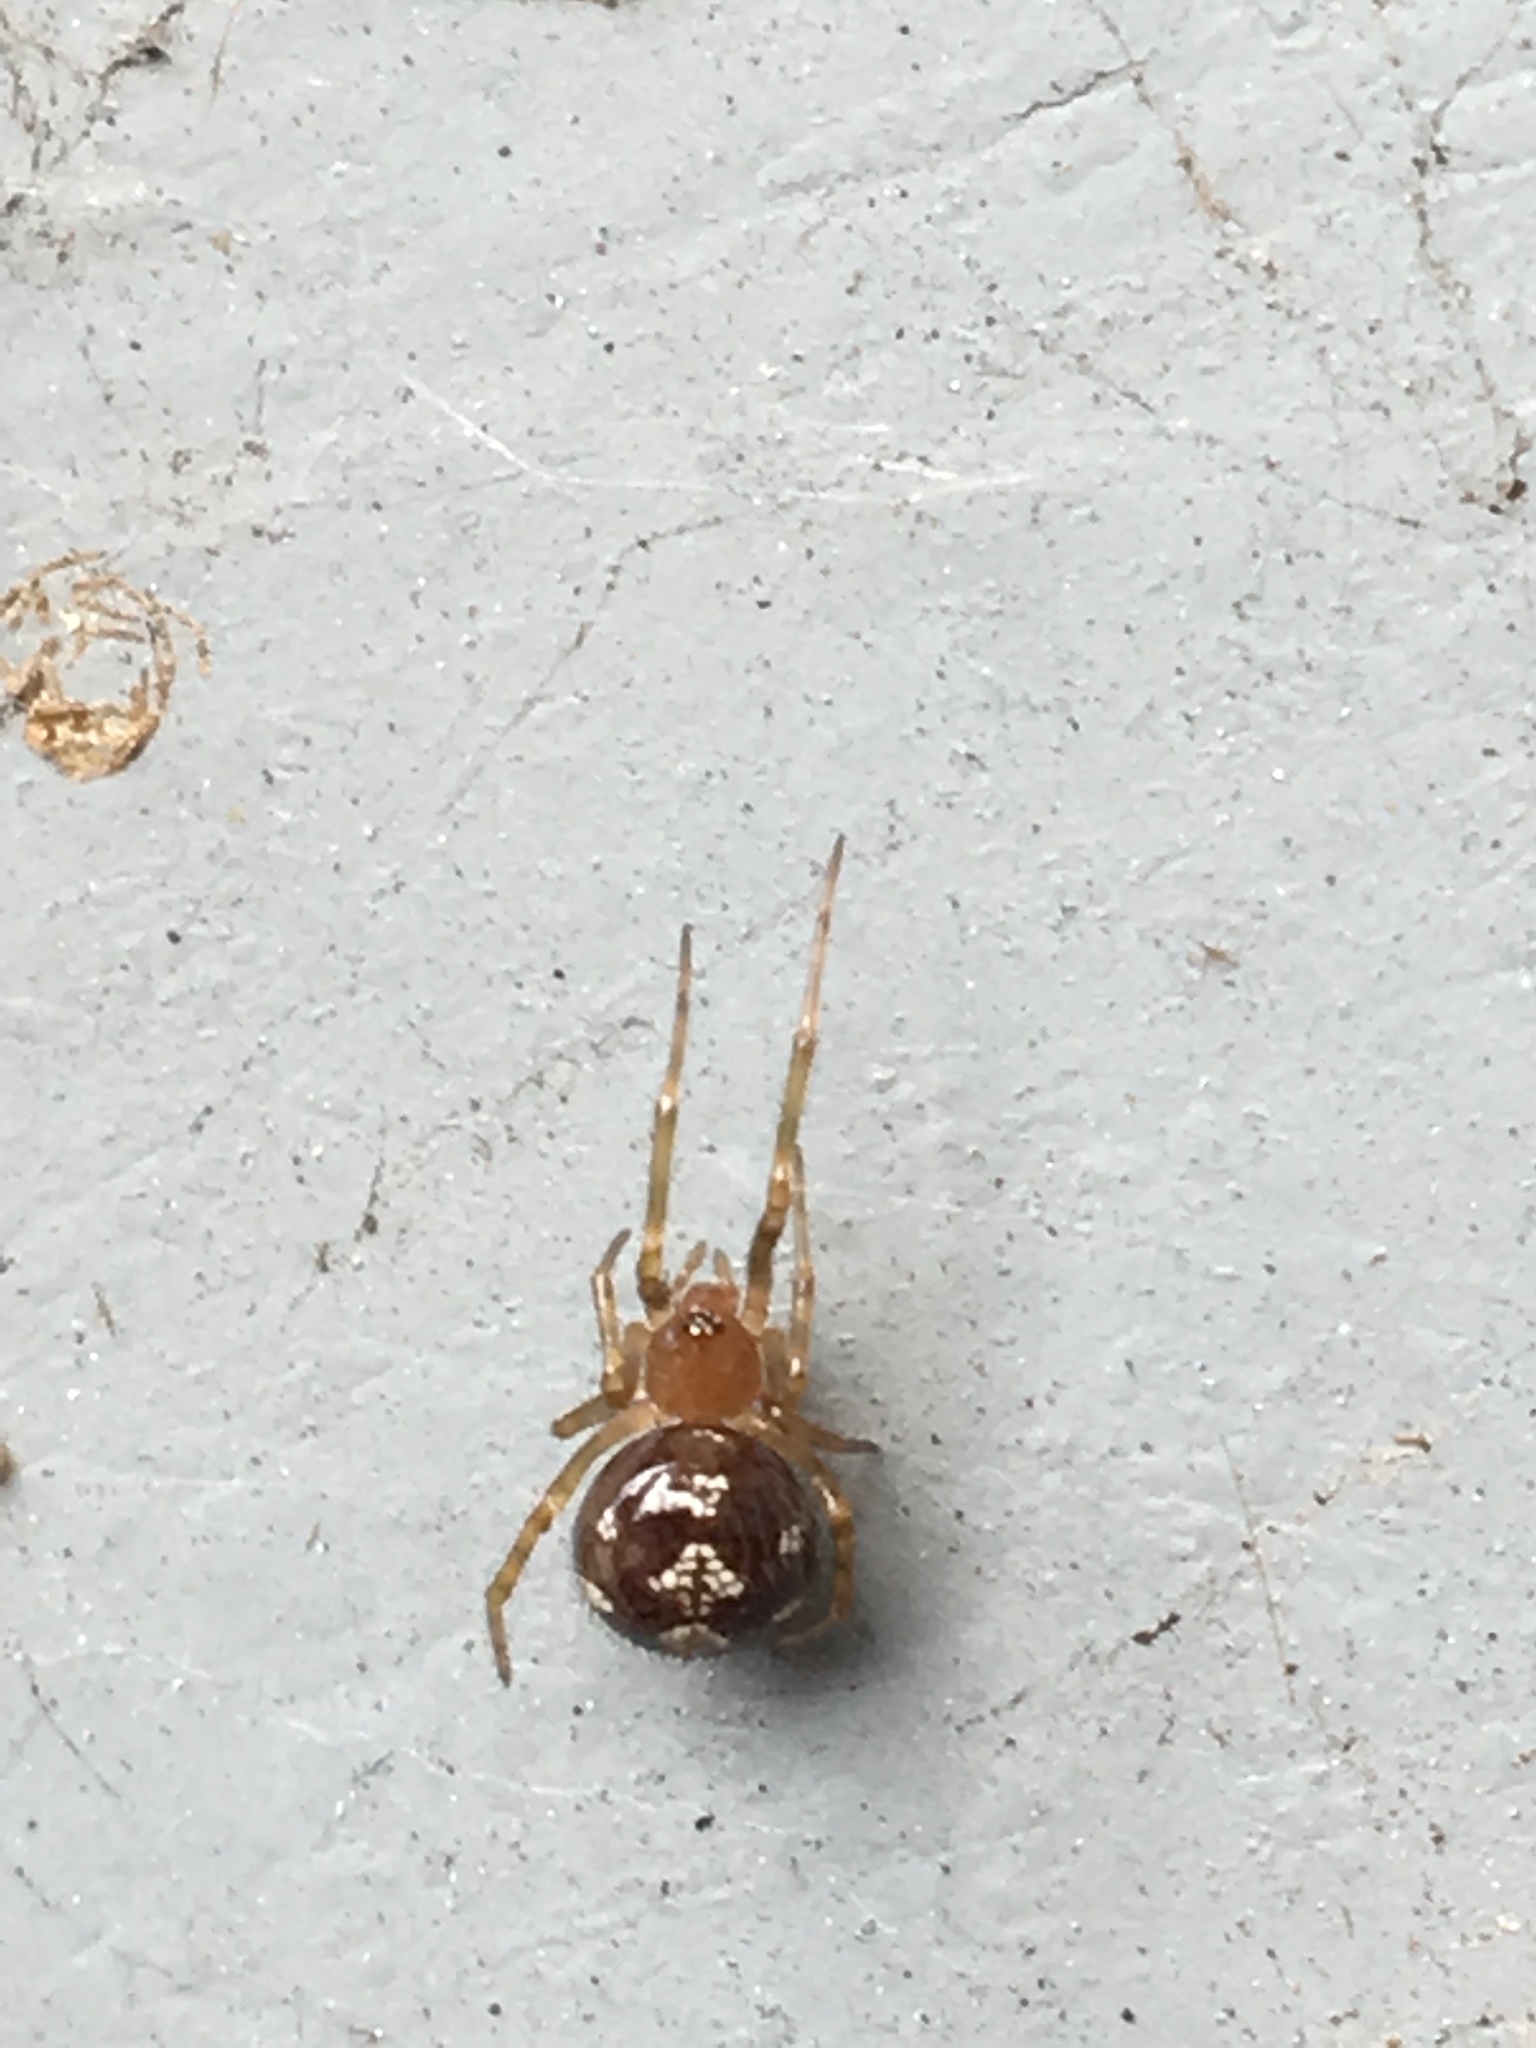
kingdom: Animalia
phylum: Arthropoda
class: Arachnida
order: Araneae
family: Theridiidae
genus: Steatoda
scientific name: Steatoda triangulosa
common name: Triangulate bud spider
